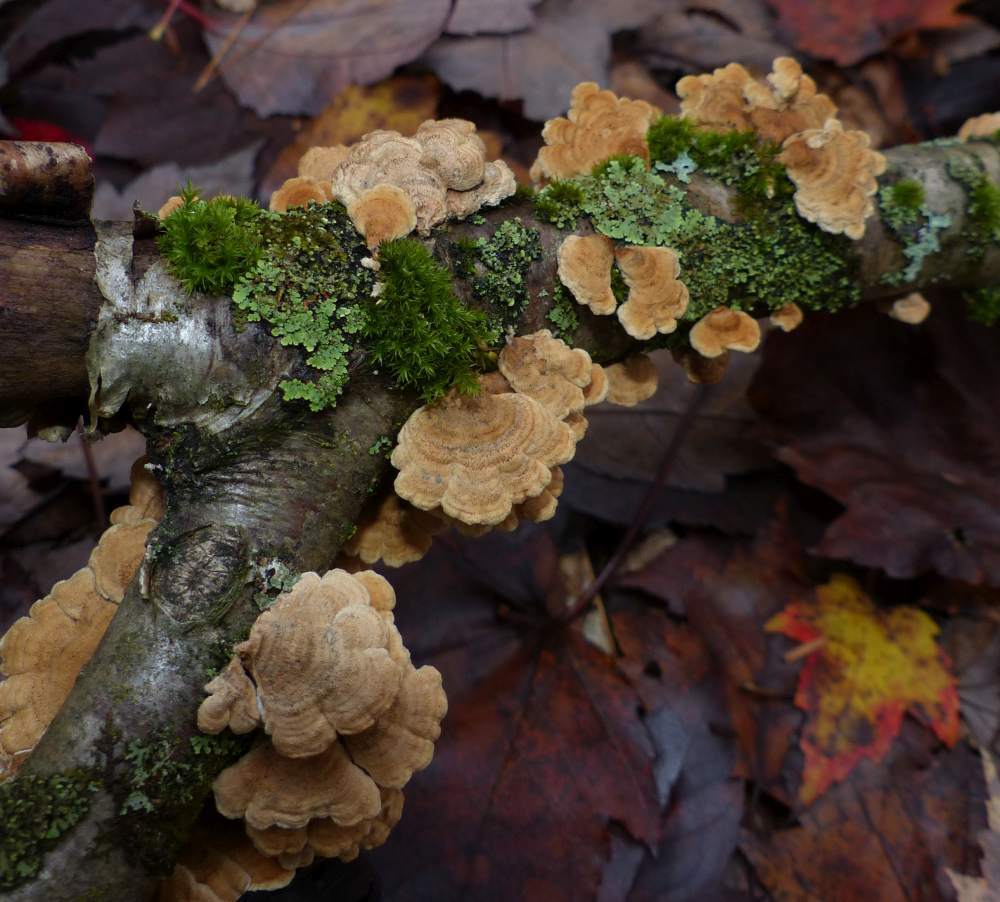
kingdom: Fungi
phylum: Basidiomycota
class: Agaricomycetes
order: Amylocorticiales
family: Amylocorticiaceae
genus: Plicaturopsis
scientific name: Plicaturopsis crispa
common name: Crimped gill
